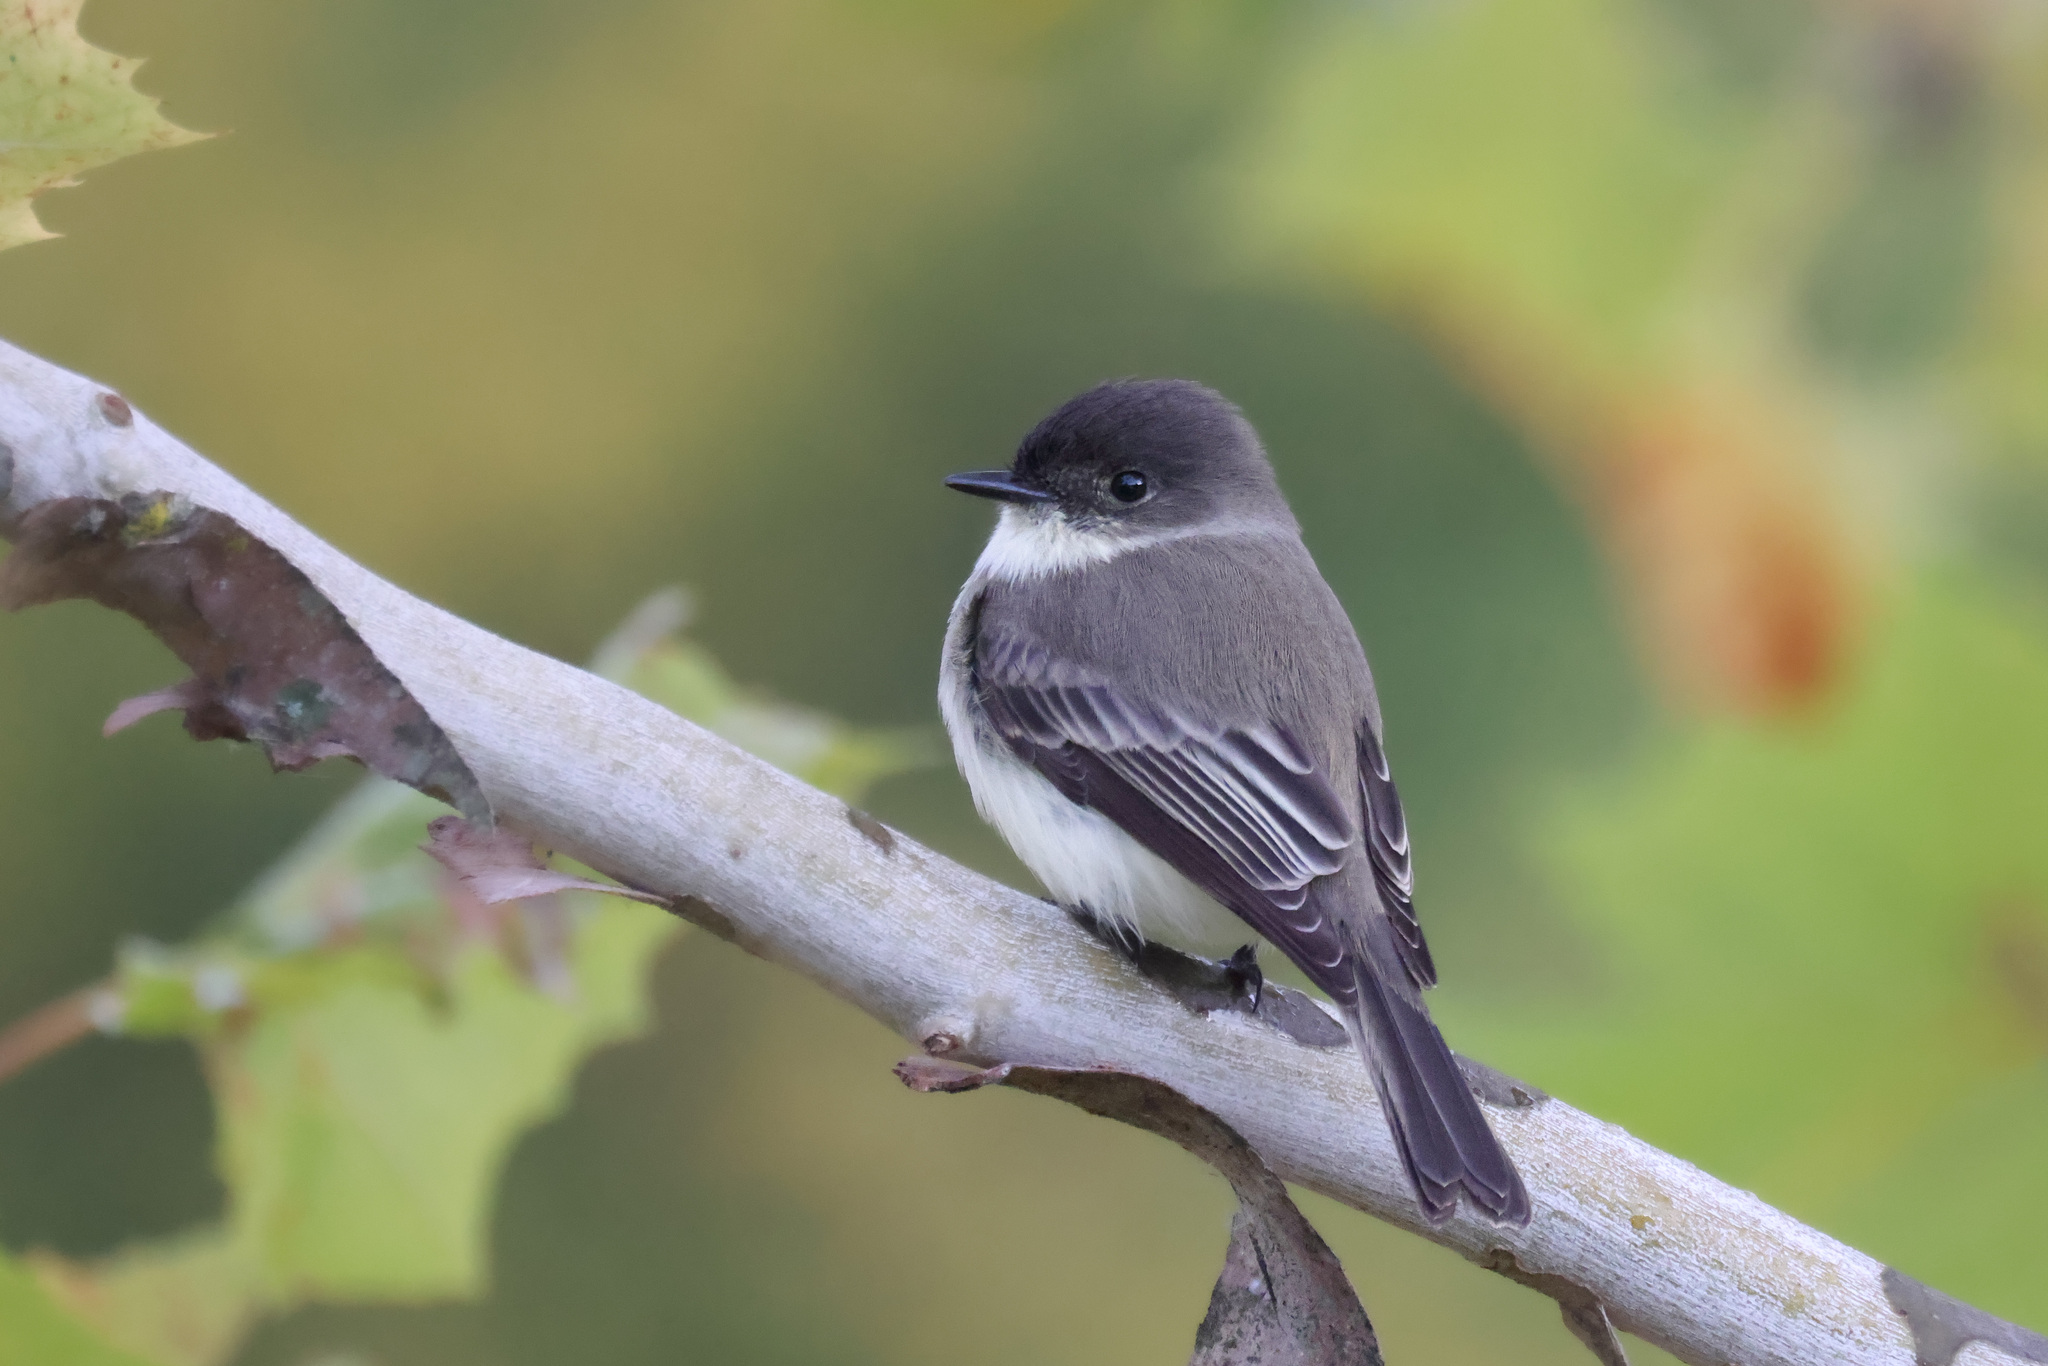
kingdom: Animalia
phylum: Chordata
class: Aves
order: Passeriformes
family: Tyrannidae
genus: Sayornis
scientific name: Sayornis phoebe
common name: Eastern phoebe
